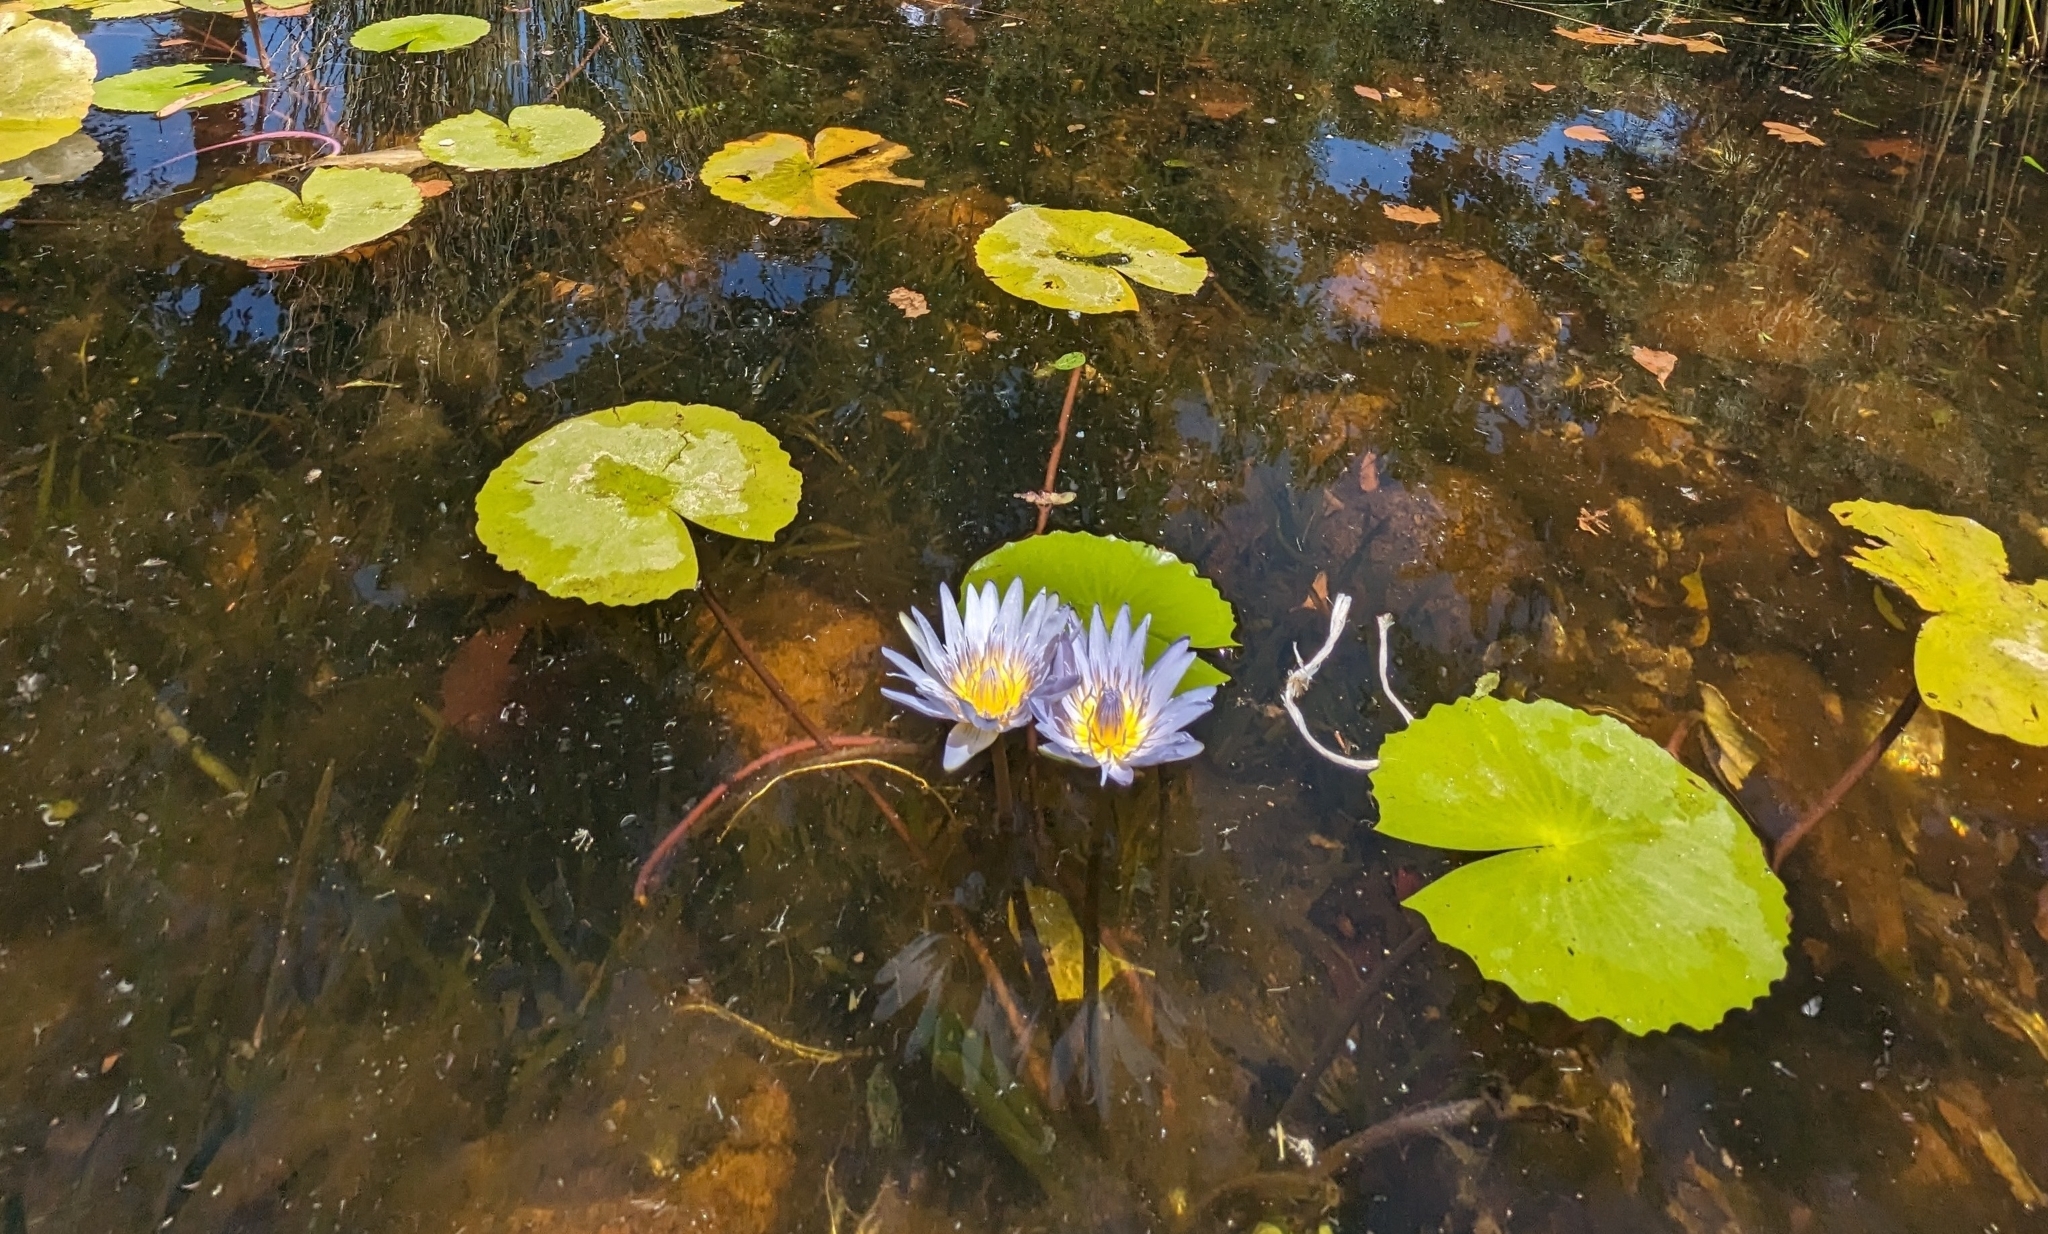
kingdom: Plantae
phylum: Tracheophyta
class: Magnoliopsida
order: Nymphaeales
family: Nymphaeaceae
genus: Nymphaea
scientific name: Nymphaea nouchali
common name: Blue lotus
